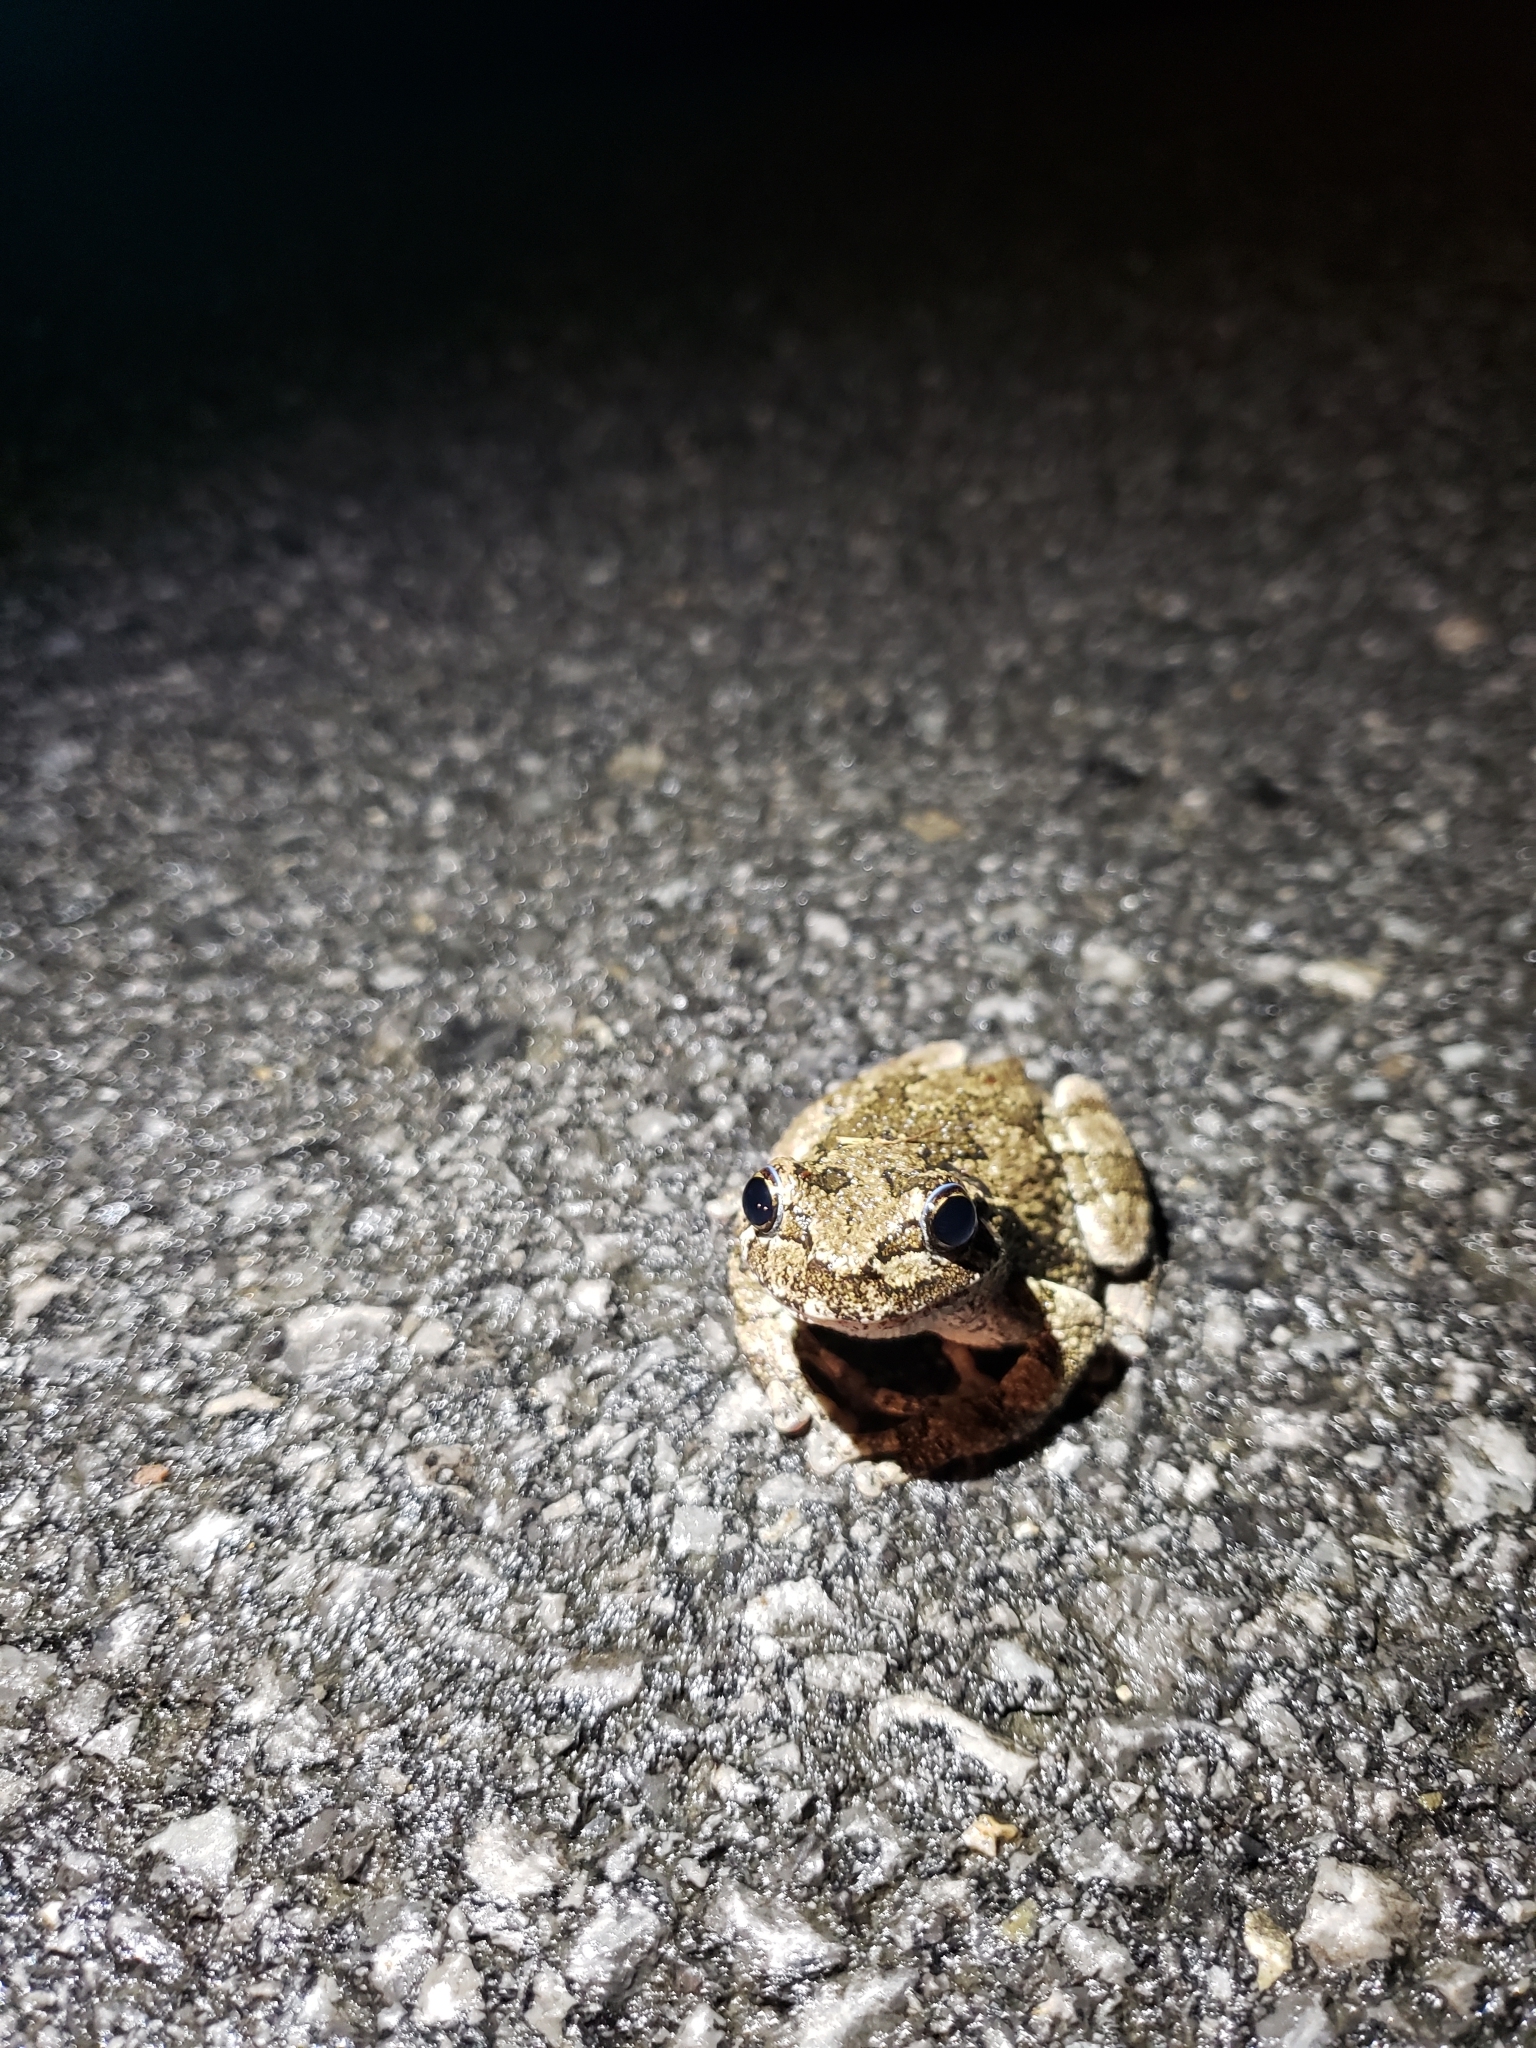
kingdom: Animalia
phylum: Chordata
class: Amphibia
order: Anura
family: Hylidae
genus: Dryophytes
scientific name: Dryophytes versicolor
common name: Gray treefrog
